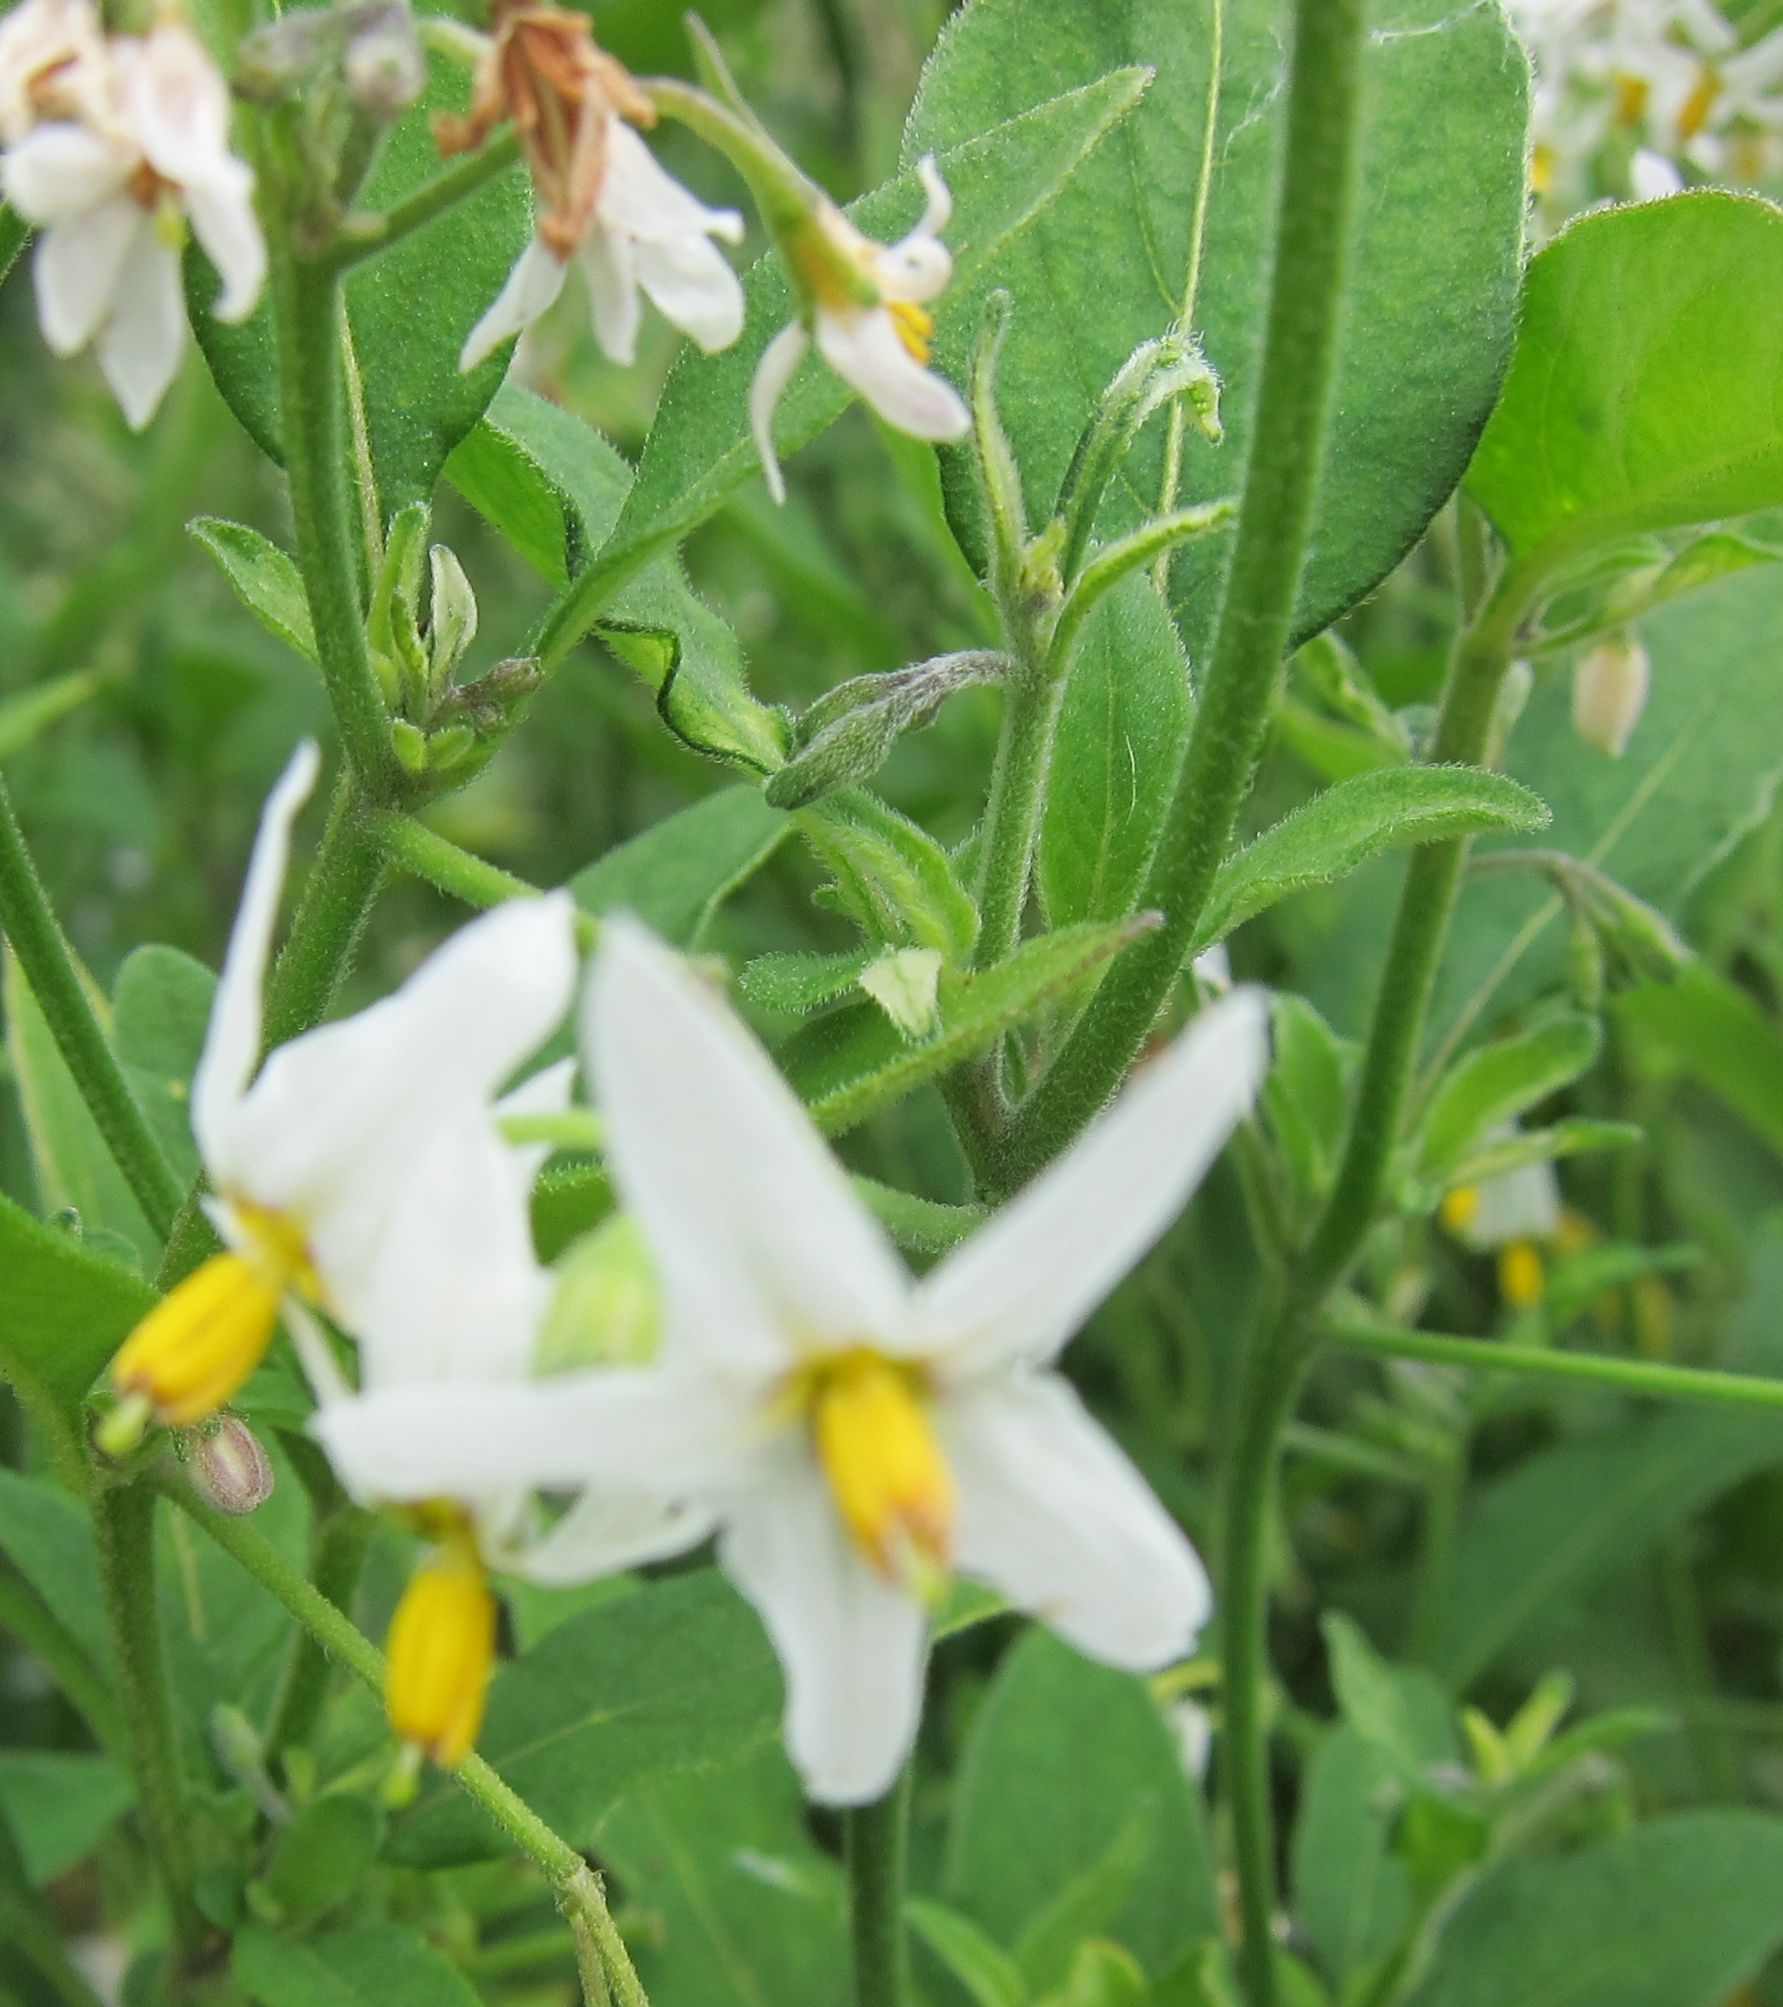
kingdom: Plantae
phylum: Tracheophyta
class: Magnoliopsida
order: Solanales
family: Solanaceae
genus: Solanum
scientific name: Solanum chenopodioides
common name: Tall nightshade
